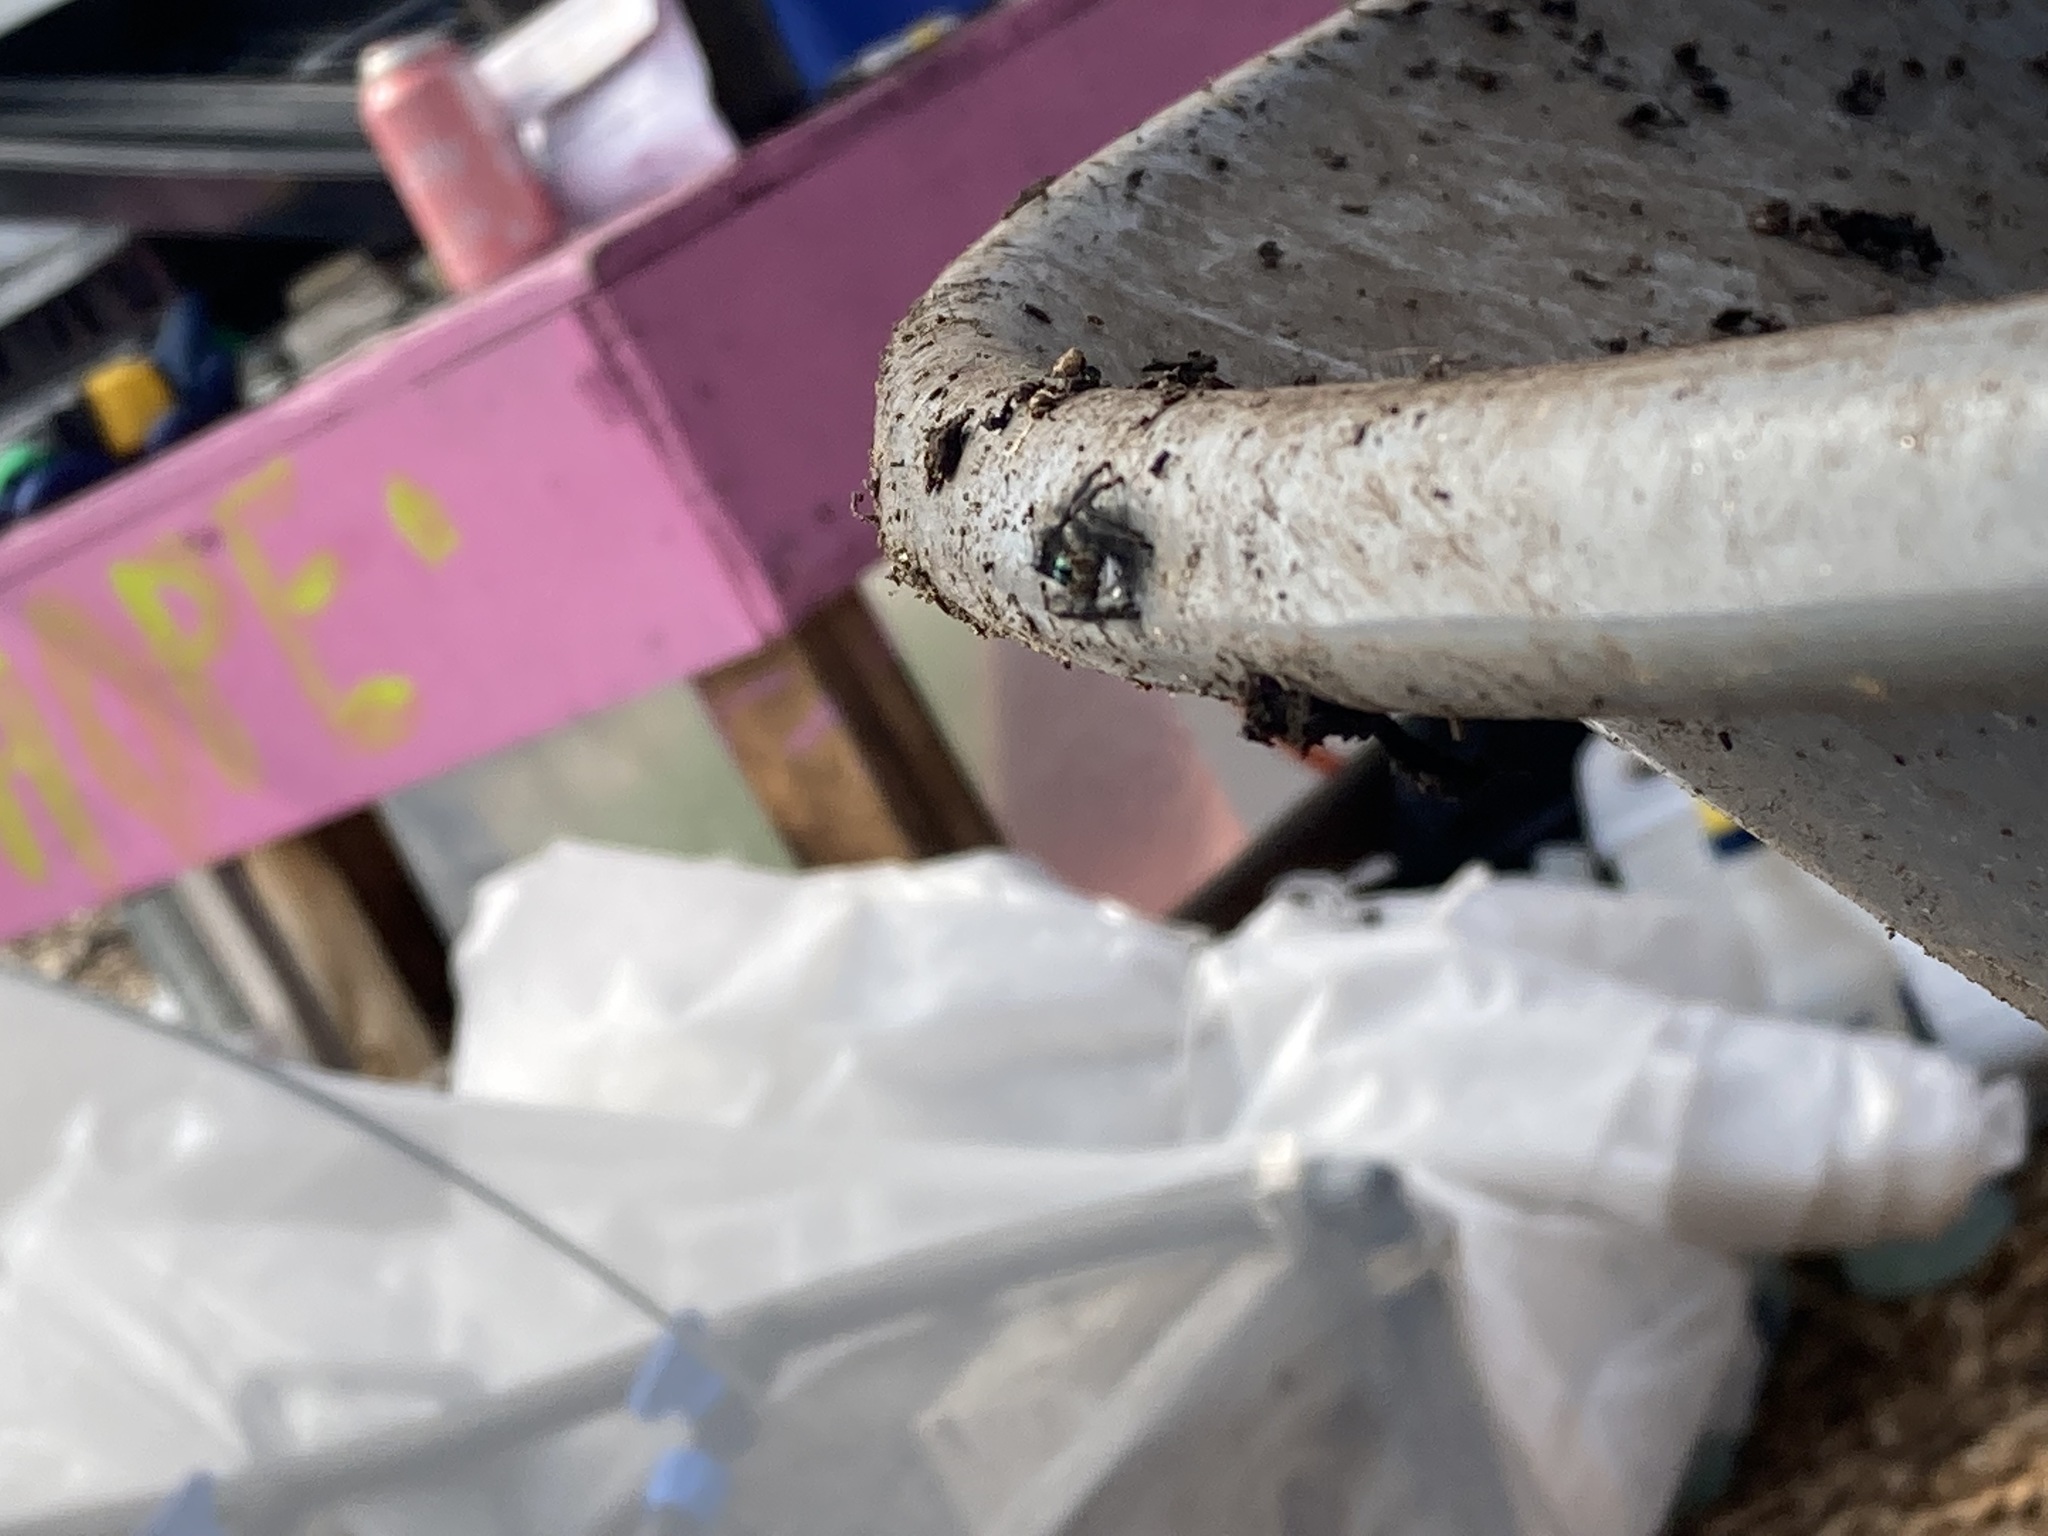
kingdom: Animalia
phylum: Arthropoda
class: Arachnida
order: Araneae
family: Salticidae
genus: Phidippus
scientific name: Phidippus audax
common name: Bold jumper
